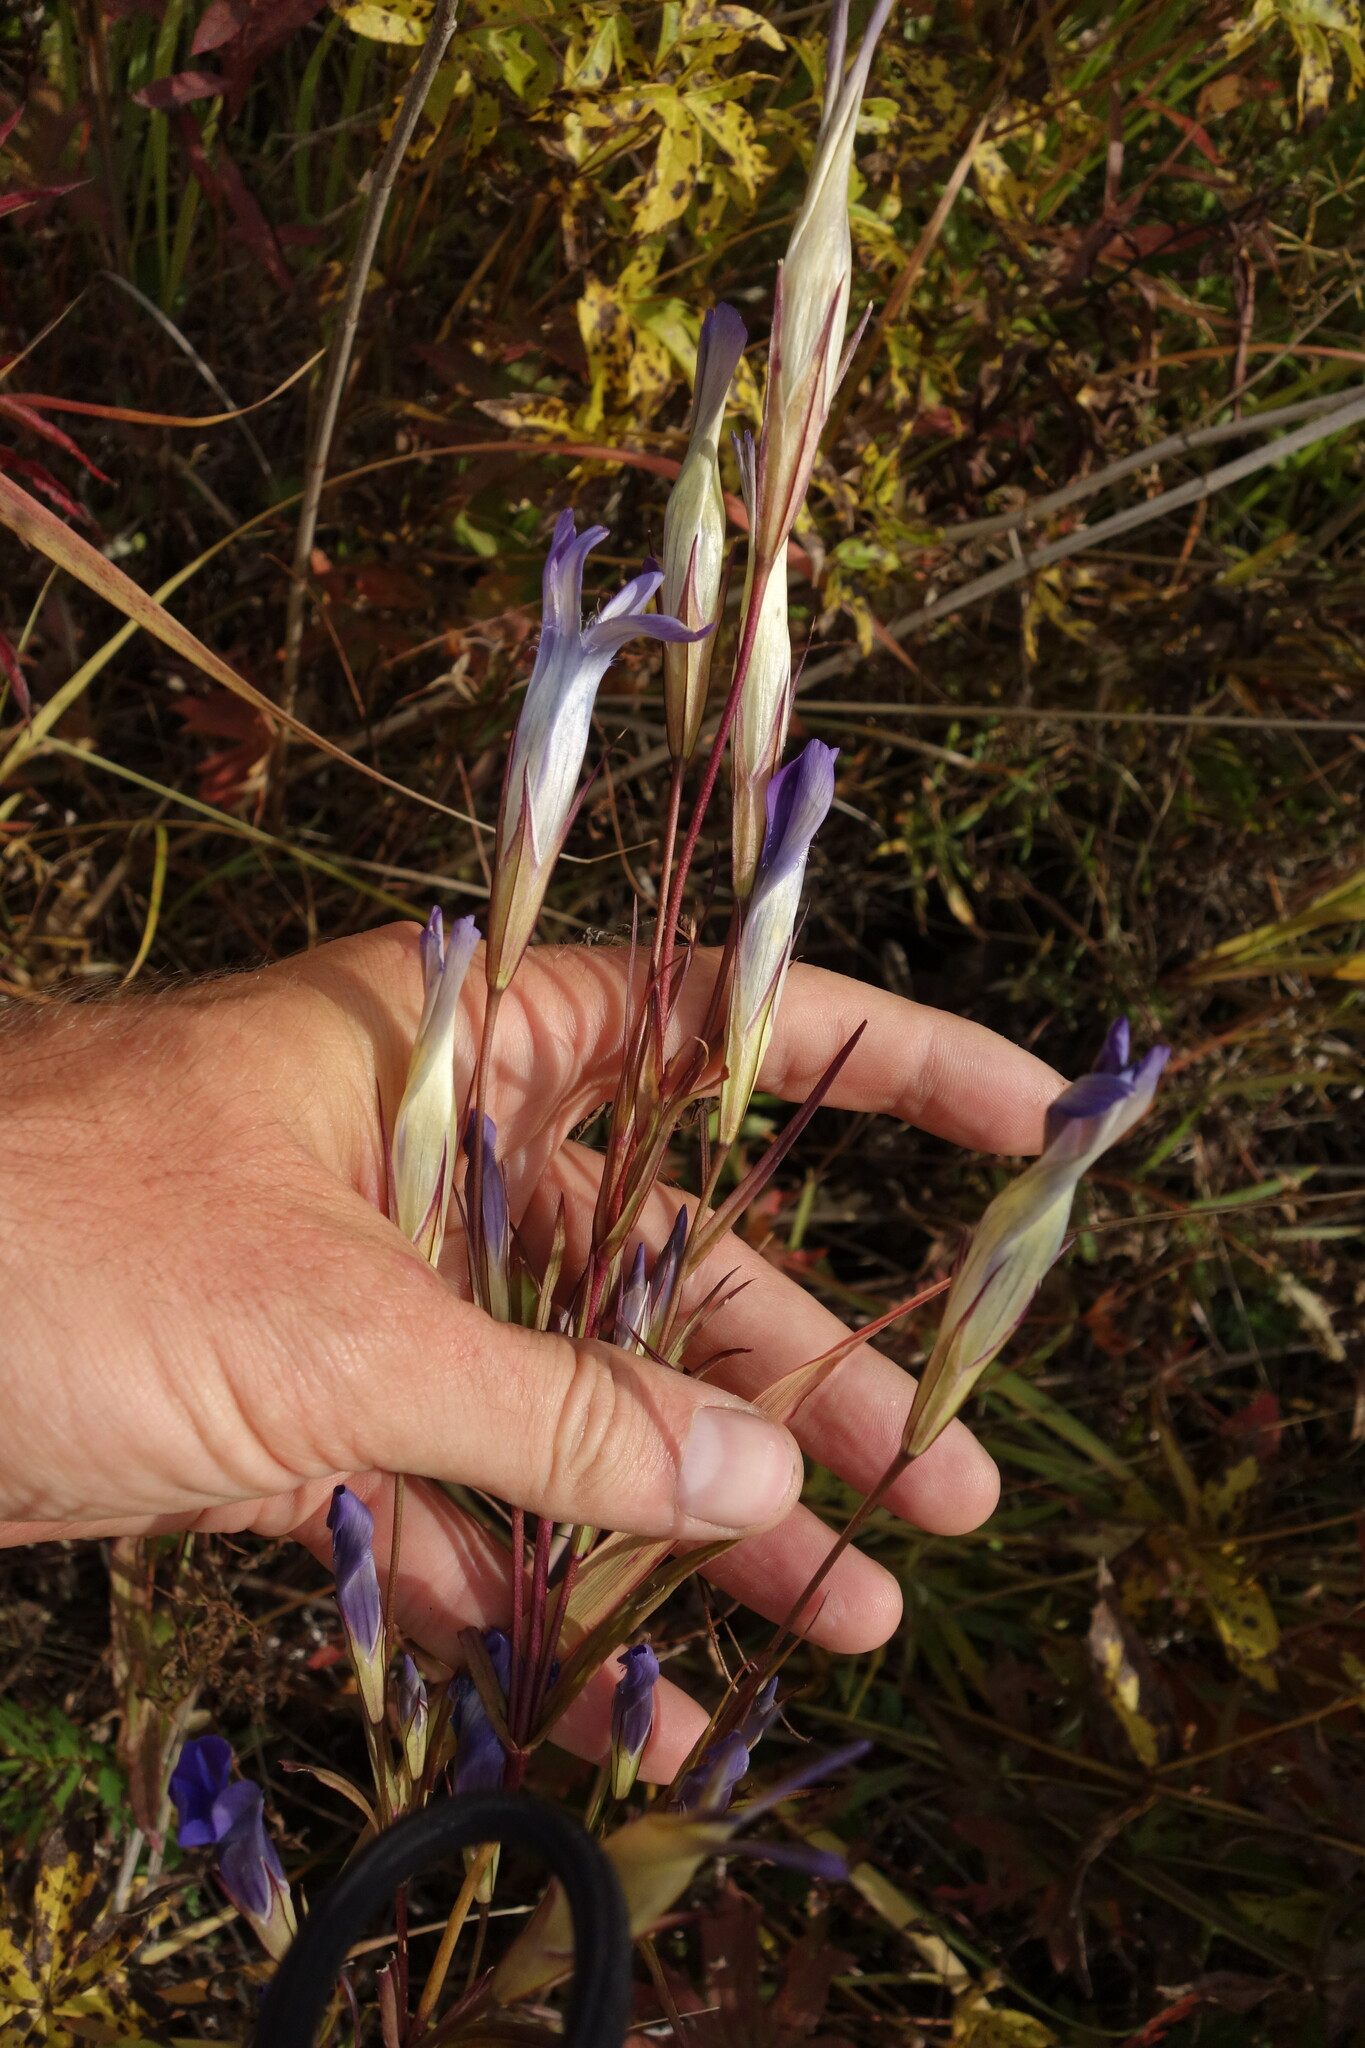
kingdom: Plantae
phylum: Tracheophyta
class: Magnoliopsida
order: Gentianales
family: Gentianaceae
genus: Gentianopsis
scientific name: Gentianopsis barbata
